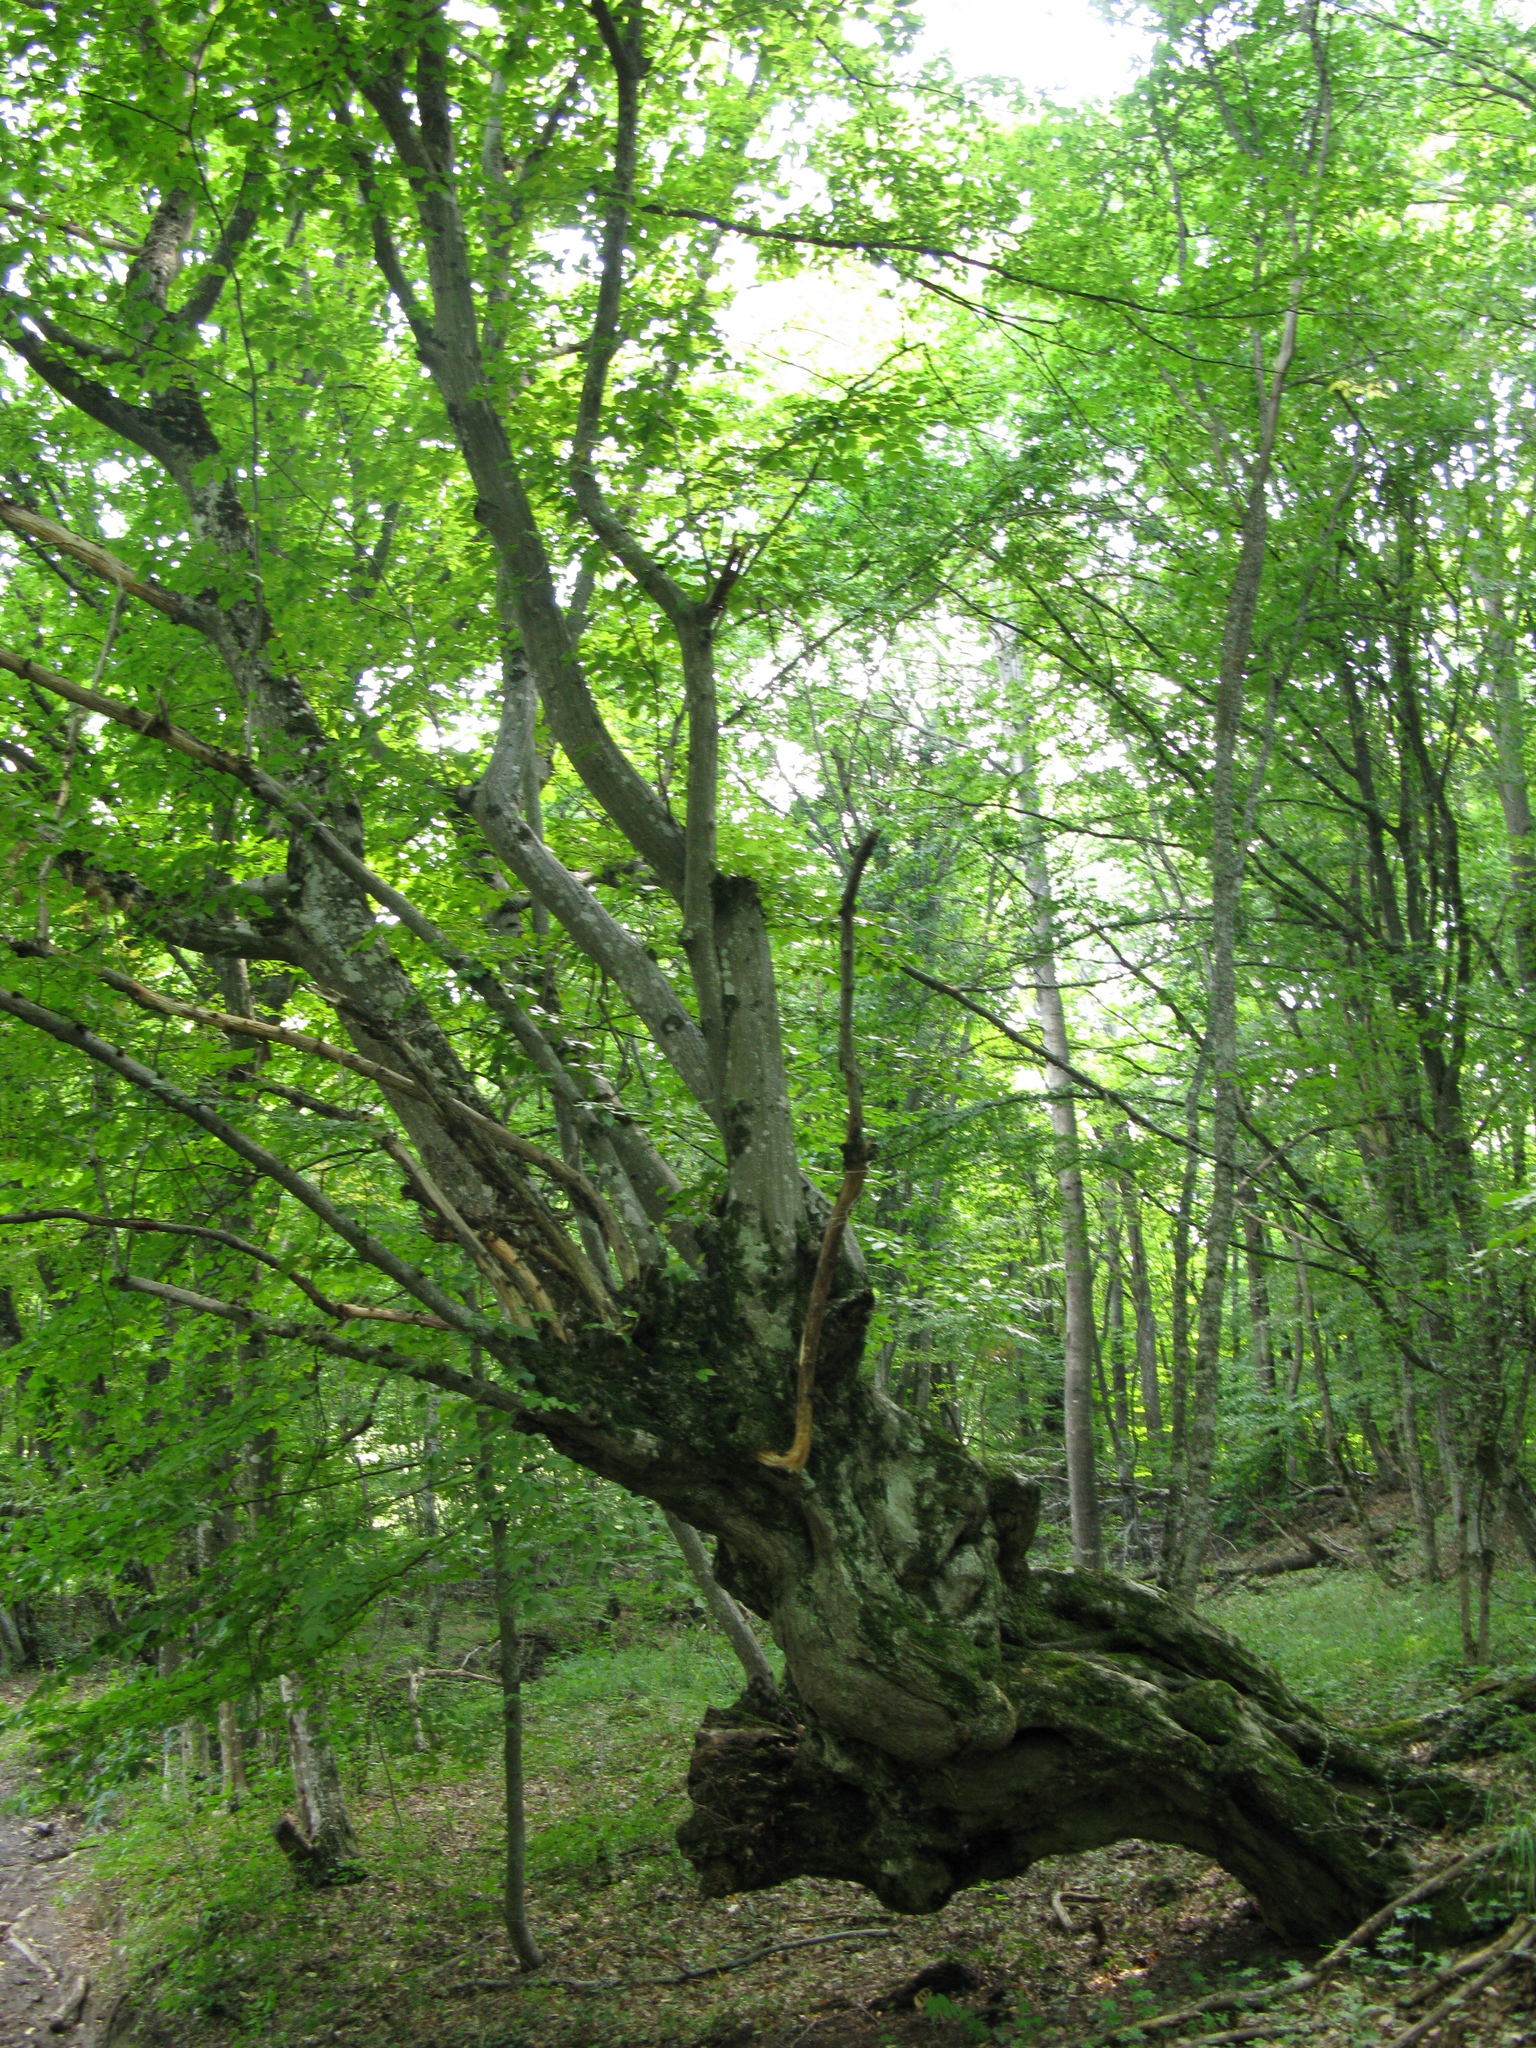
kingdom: Plantae
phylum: Tracheophyta
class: Magnoliopsida
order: Fagales
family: Fagaceae
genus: Fagus
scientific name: Fagus taurica
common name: Crimean beech
